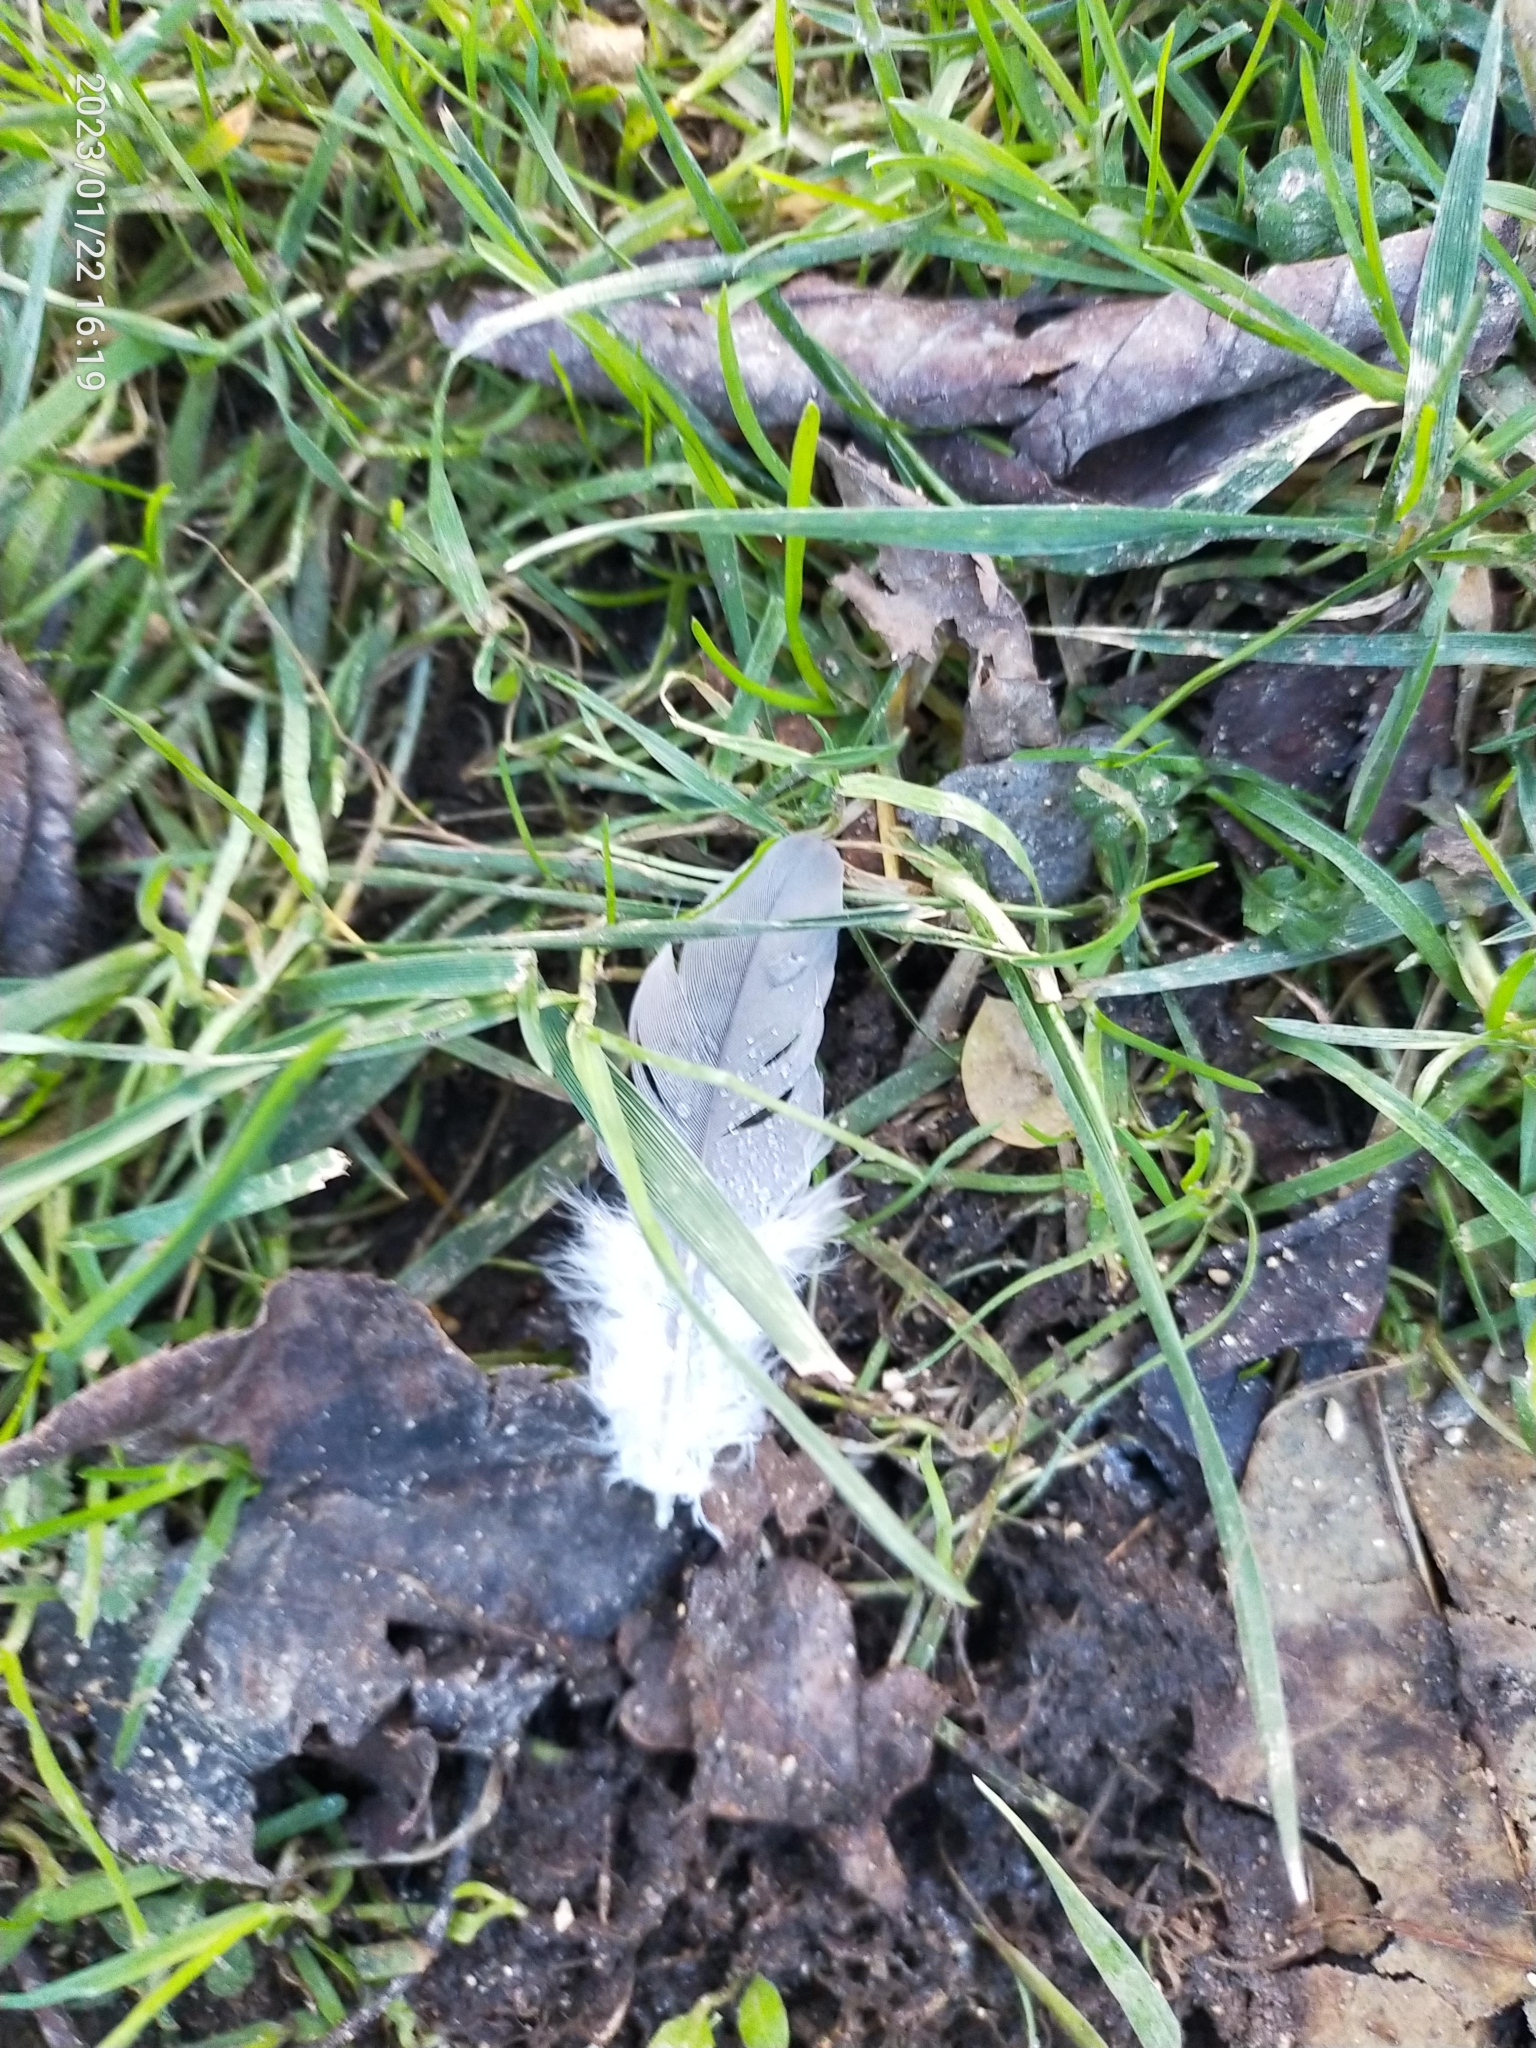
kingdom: Animalia
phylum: Chordata
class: Aves
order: Columbiformes
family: Columbidae
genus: Columba
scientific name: Columba palumbus
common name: Common wood pigeon
